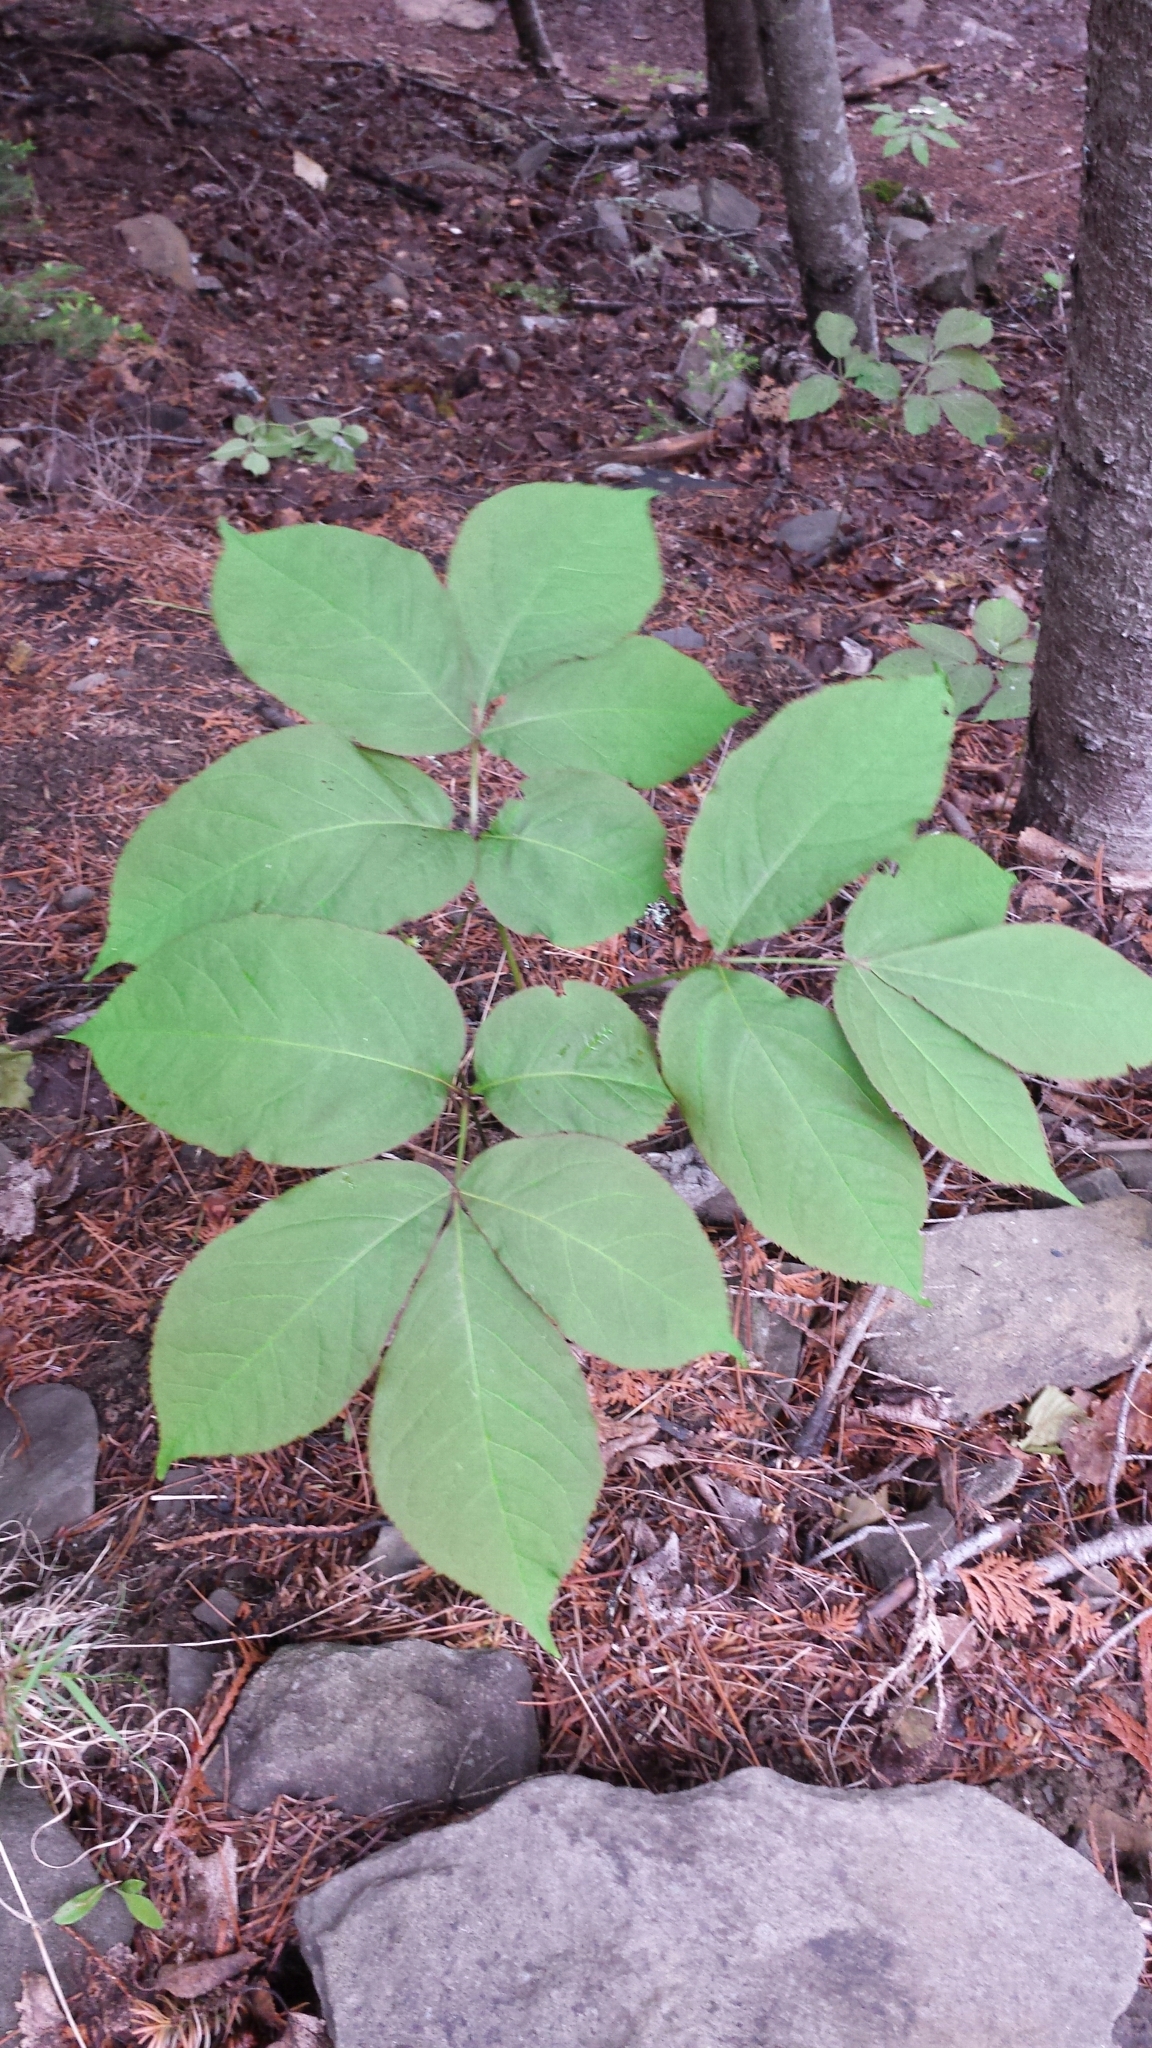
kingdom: Plantae
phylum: Tracheophyta
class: Magnoliopsida
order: Apiales
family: Araliaceae
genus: Aralia
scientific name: Aralia nudicaulis
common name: Wild sarsaparilla
